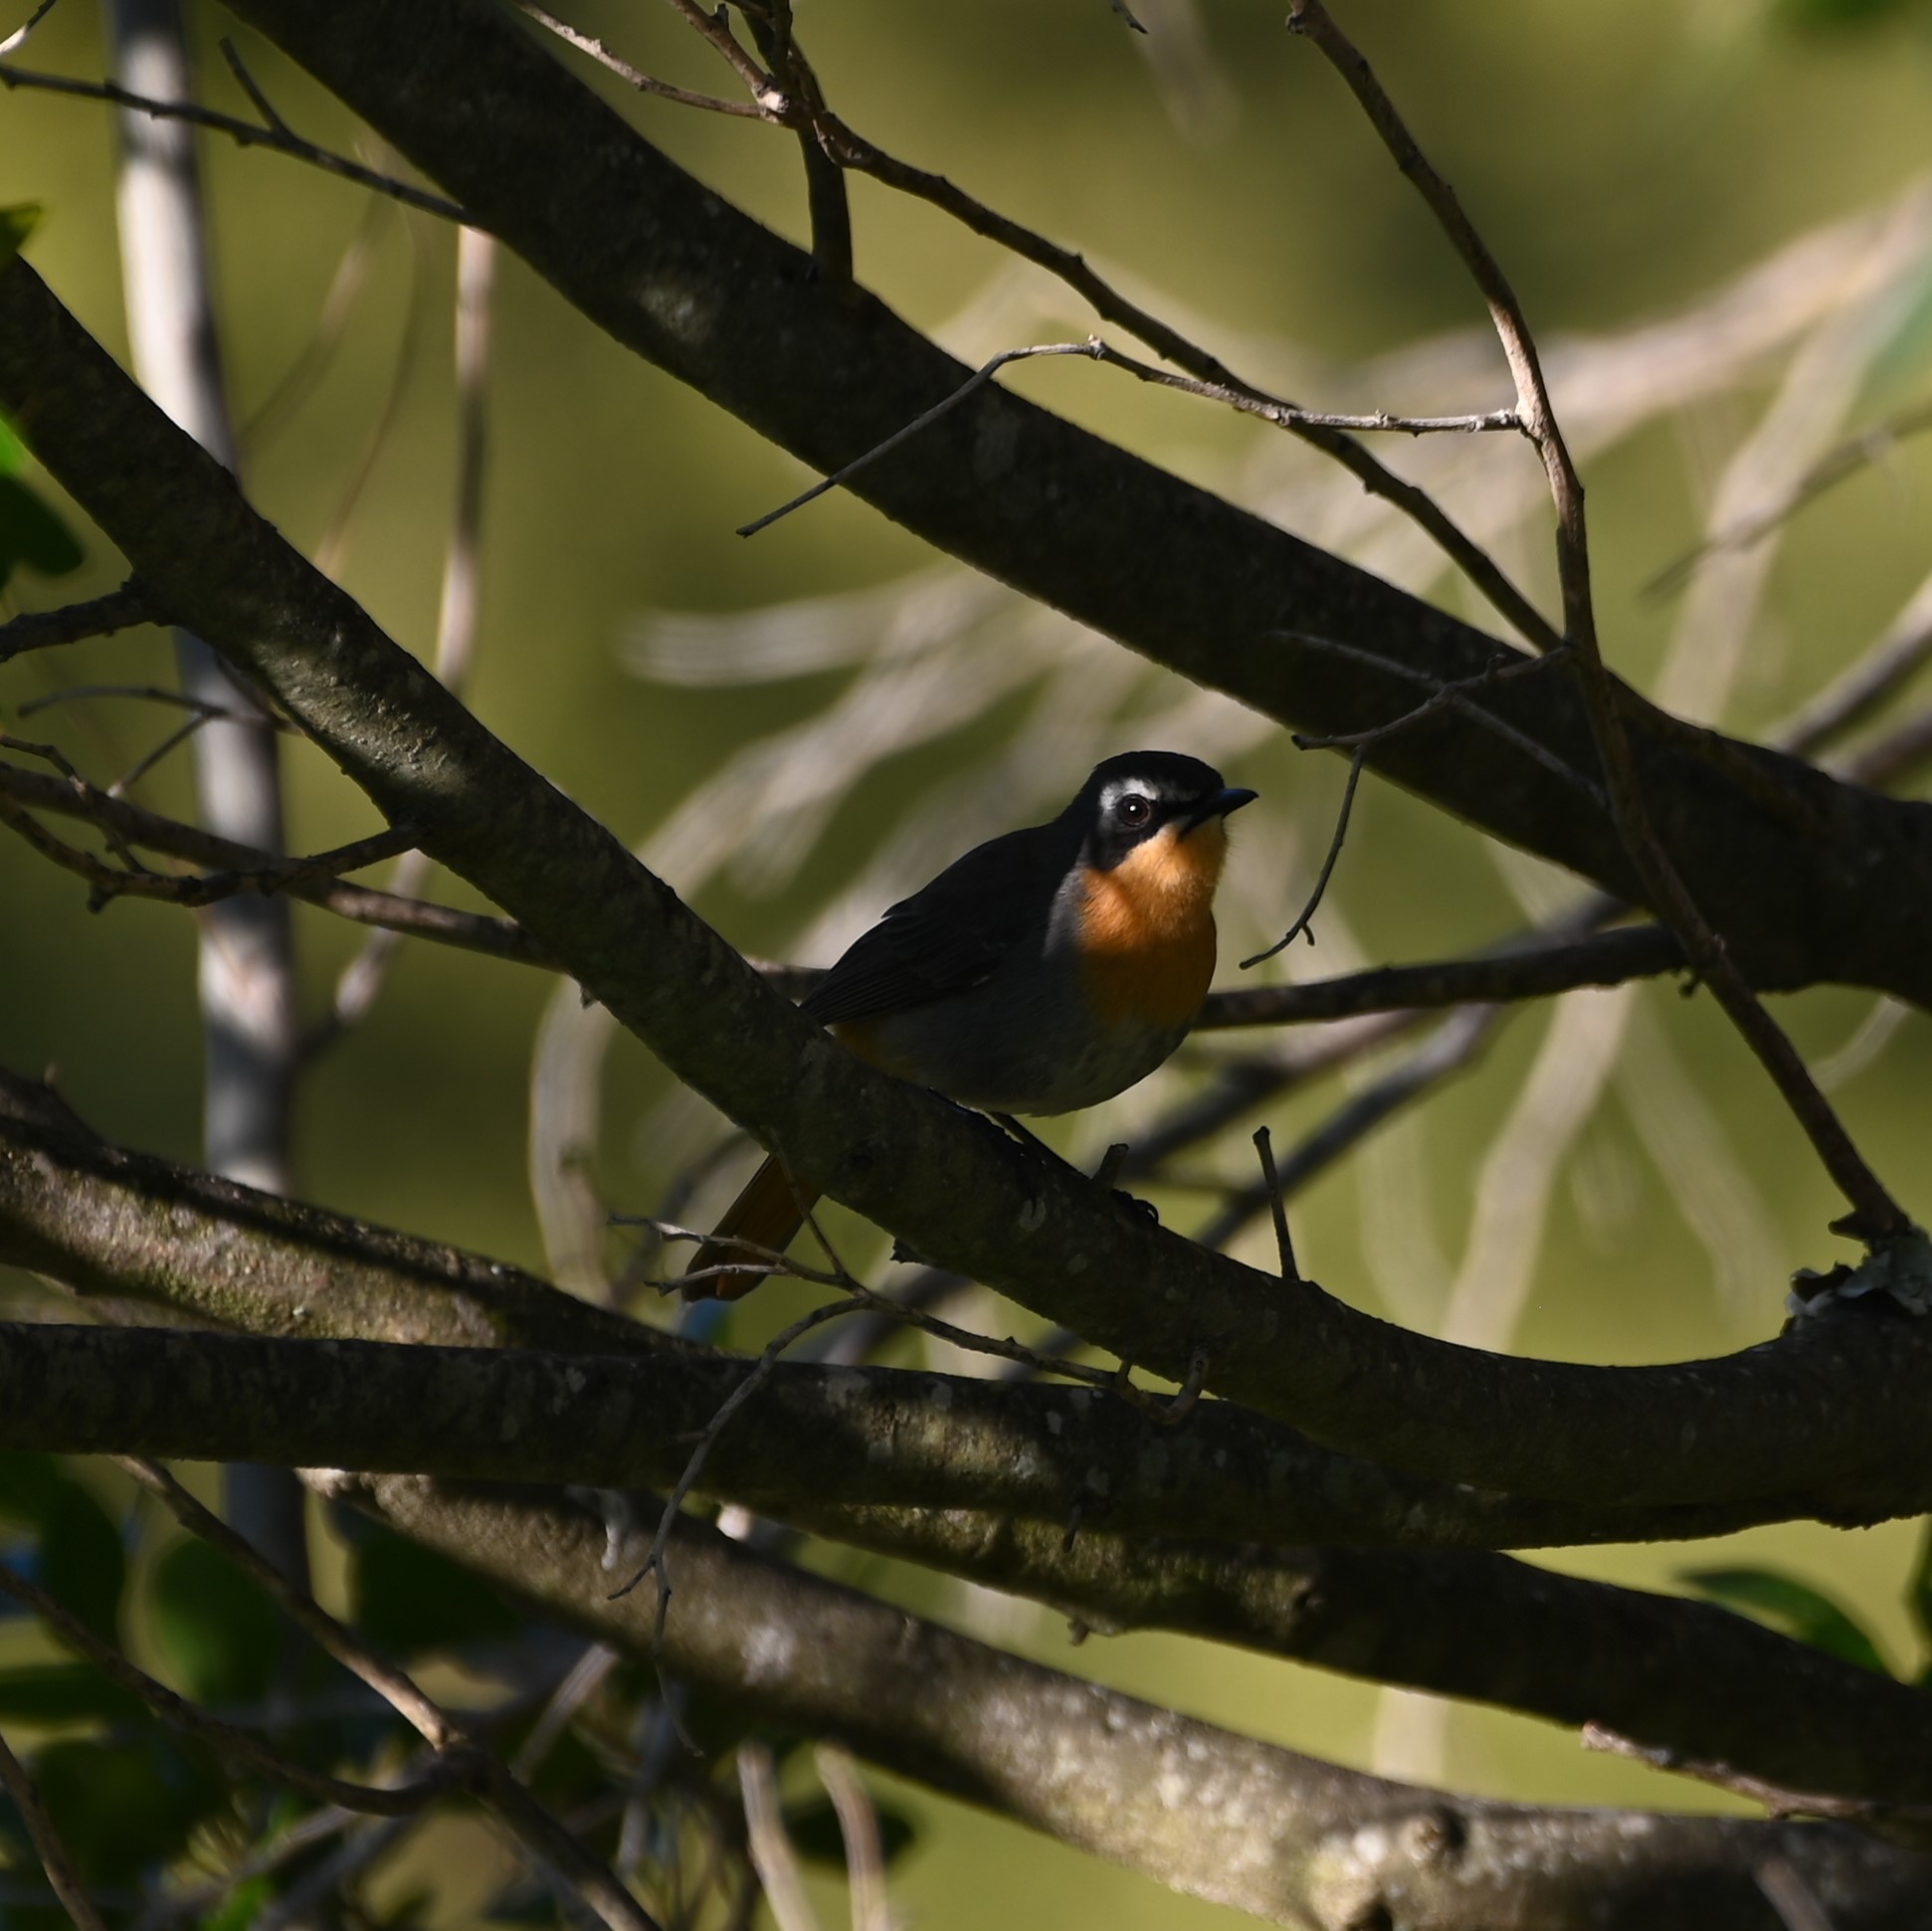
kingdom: Animalia
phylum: Chordata
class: Aves
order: Passeriformes
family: Muscicapidae
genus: Cossypha
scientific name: Cossypha caffra
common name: Cape robin-chat
